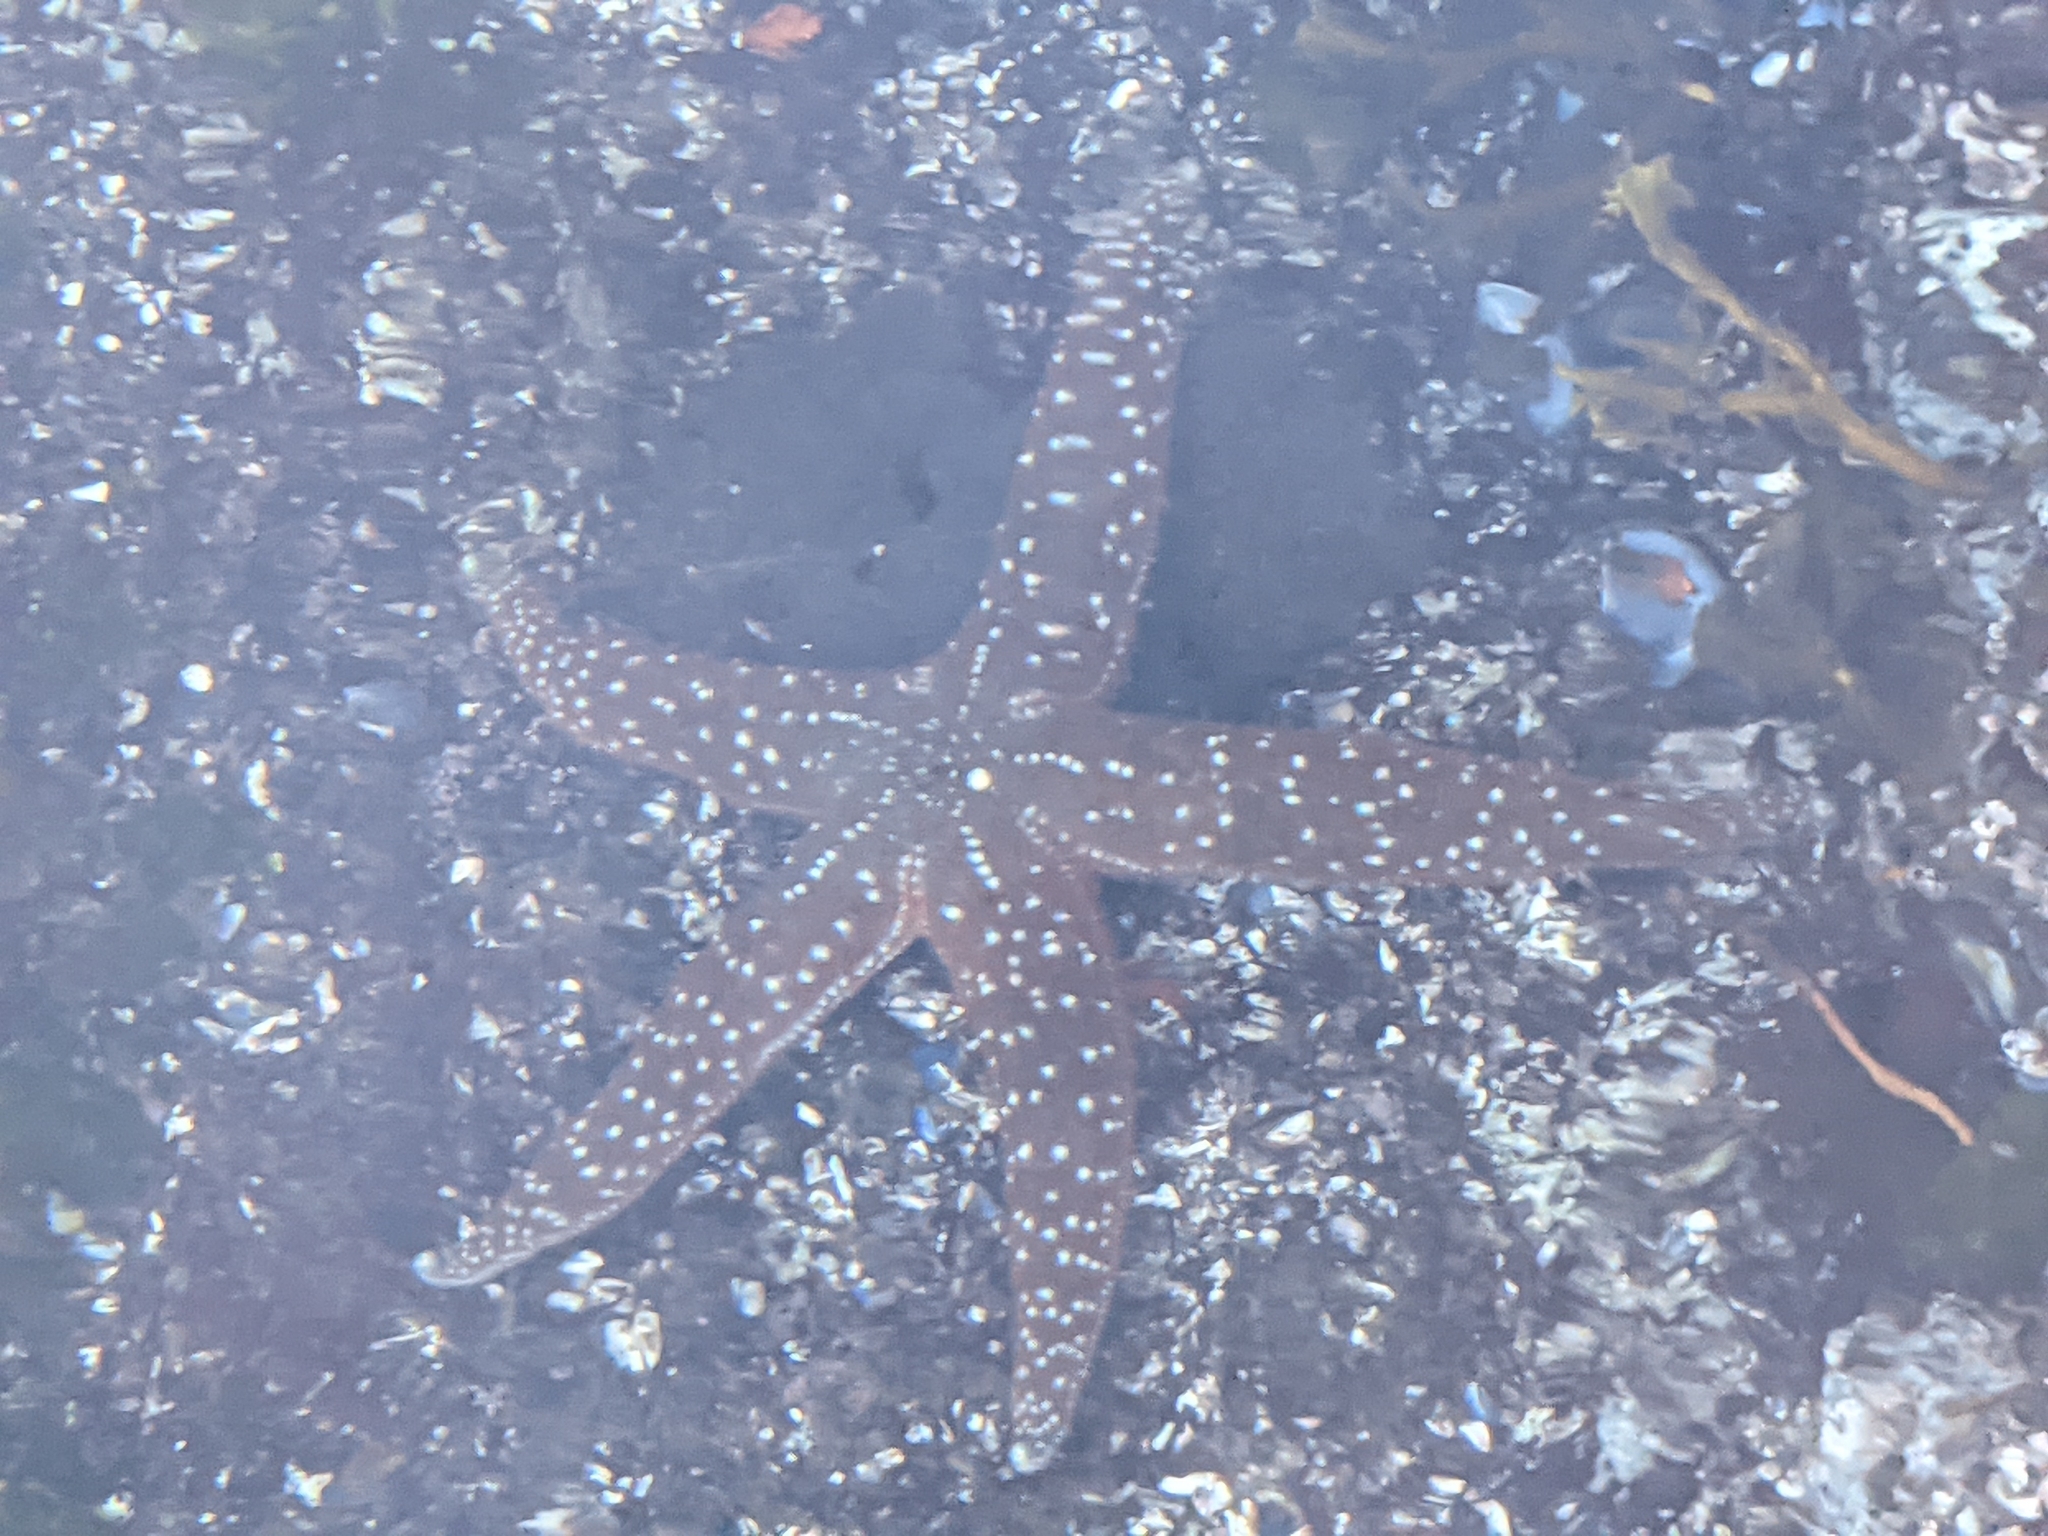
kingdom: Animalia
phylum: Echinodermata
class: Asteroidea
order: Forcipulatida
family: Asteriidae
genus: Evasterias
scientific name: Evasterias troschelii
